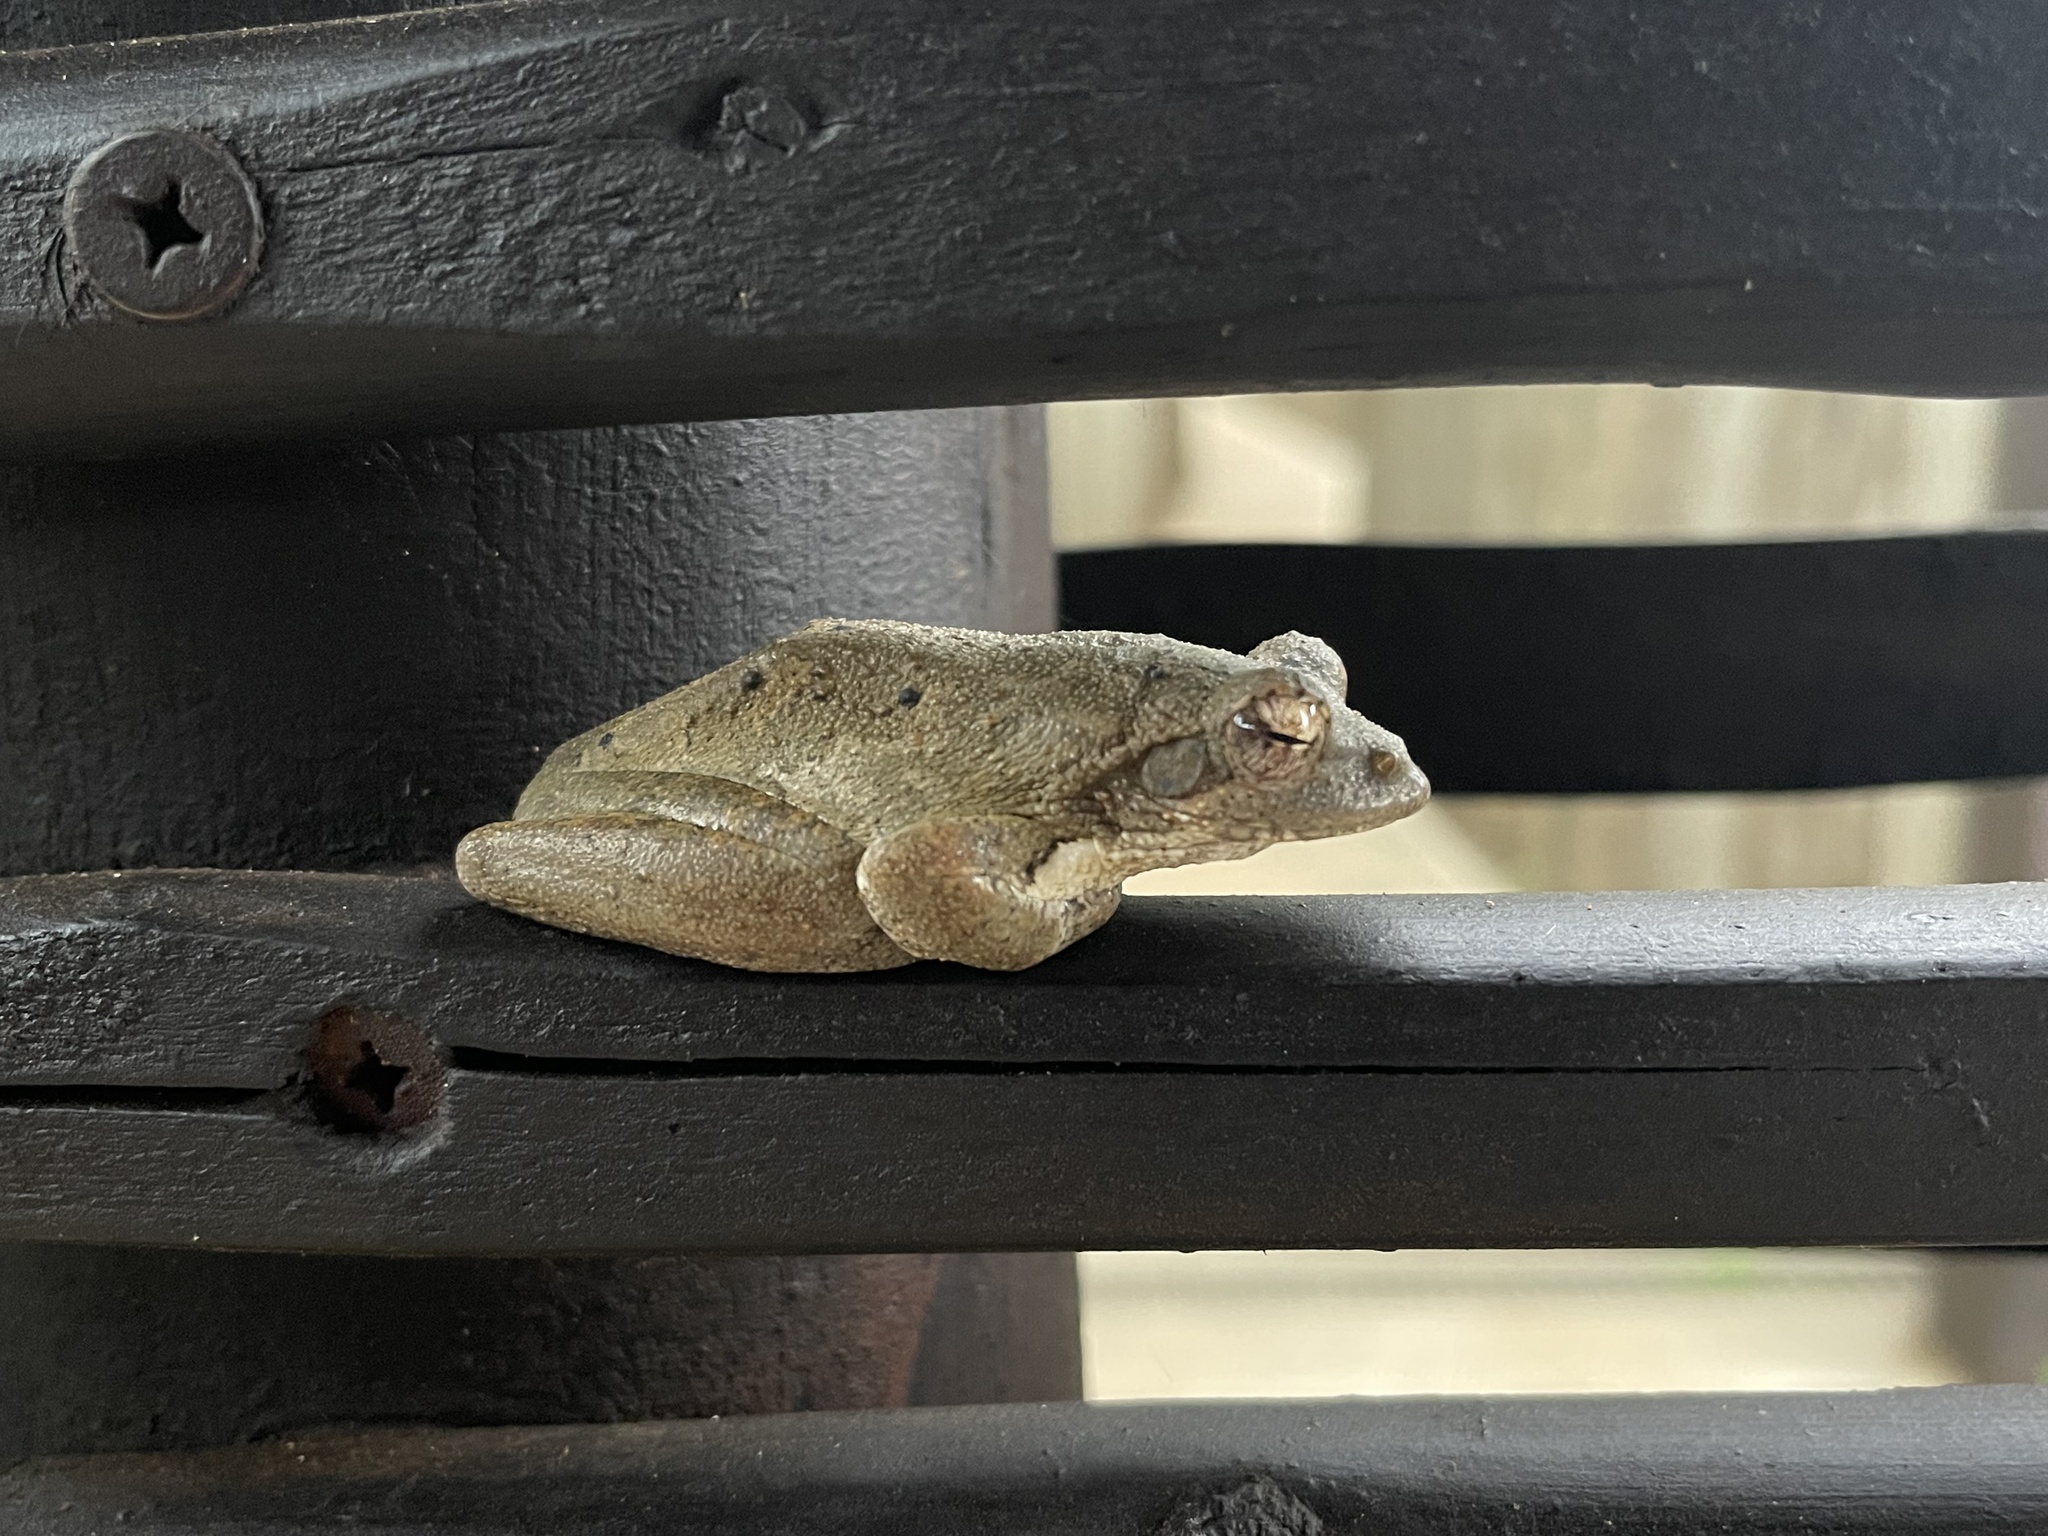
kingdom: Animalia
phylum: Chordata
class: Amphibia
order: Anura
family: Rhacophoridae
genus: Chiromantis
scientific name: Chiromantis xerampelina
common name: African gray treefrog
